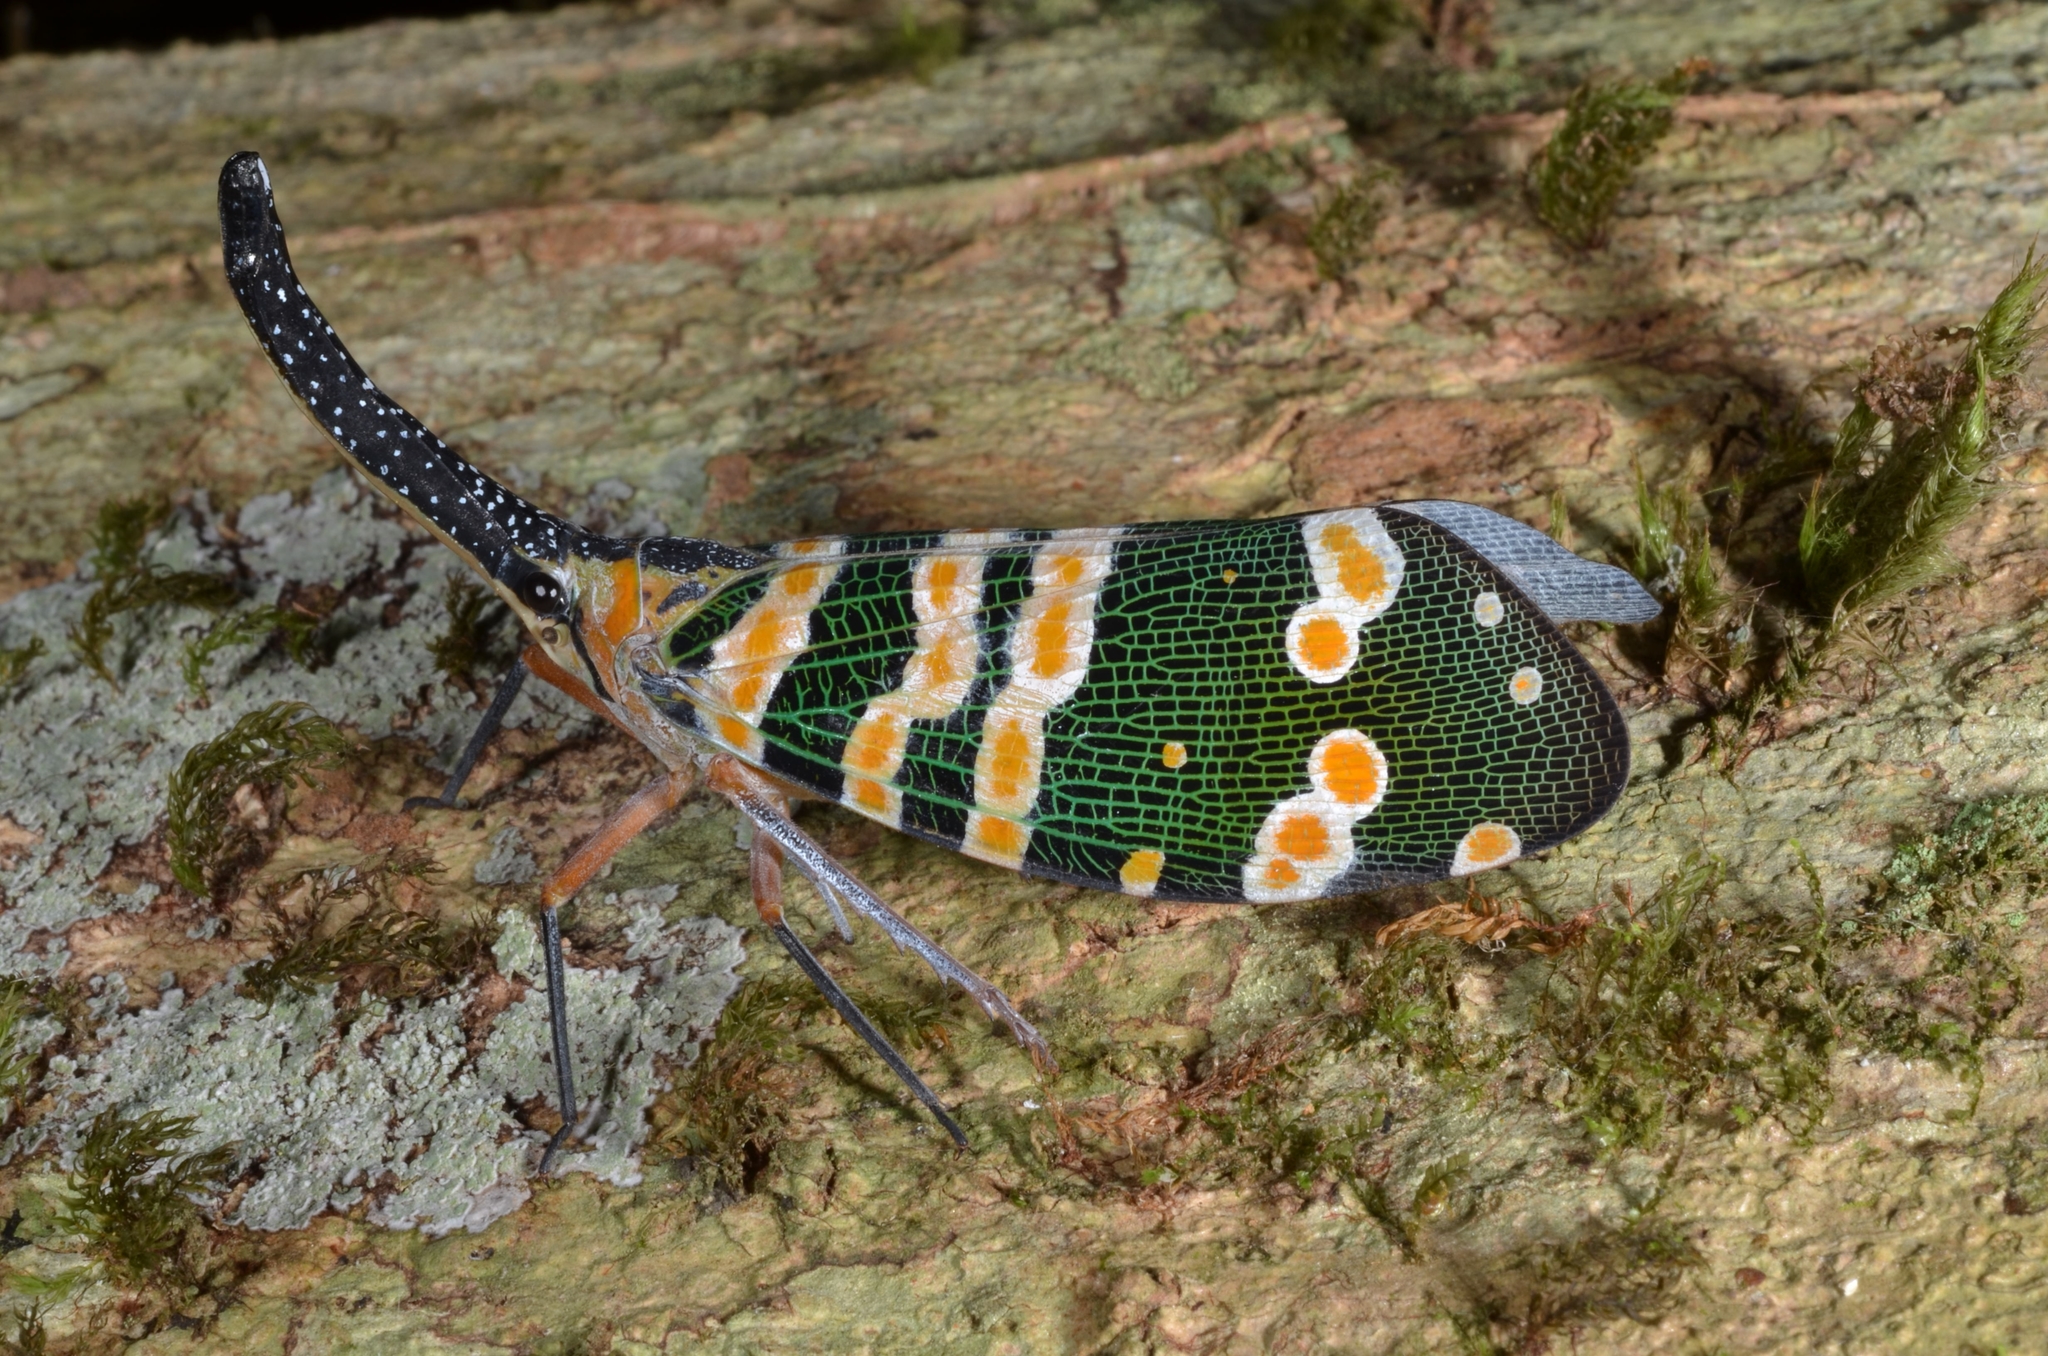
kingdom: Animalia
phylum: Arthropoda
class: Insecta
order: Hemiptera
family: Fulgoridae
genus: Pyrops
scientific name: Pyrops spinolae
